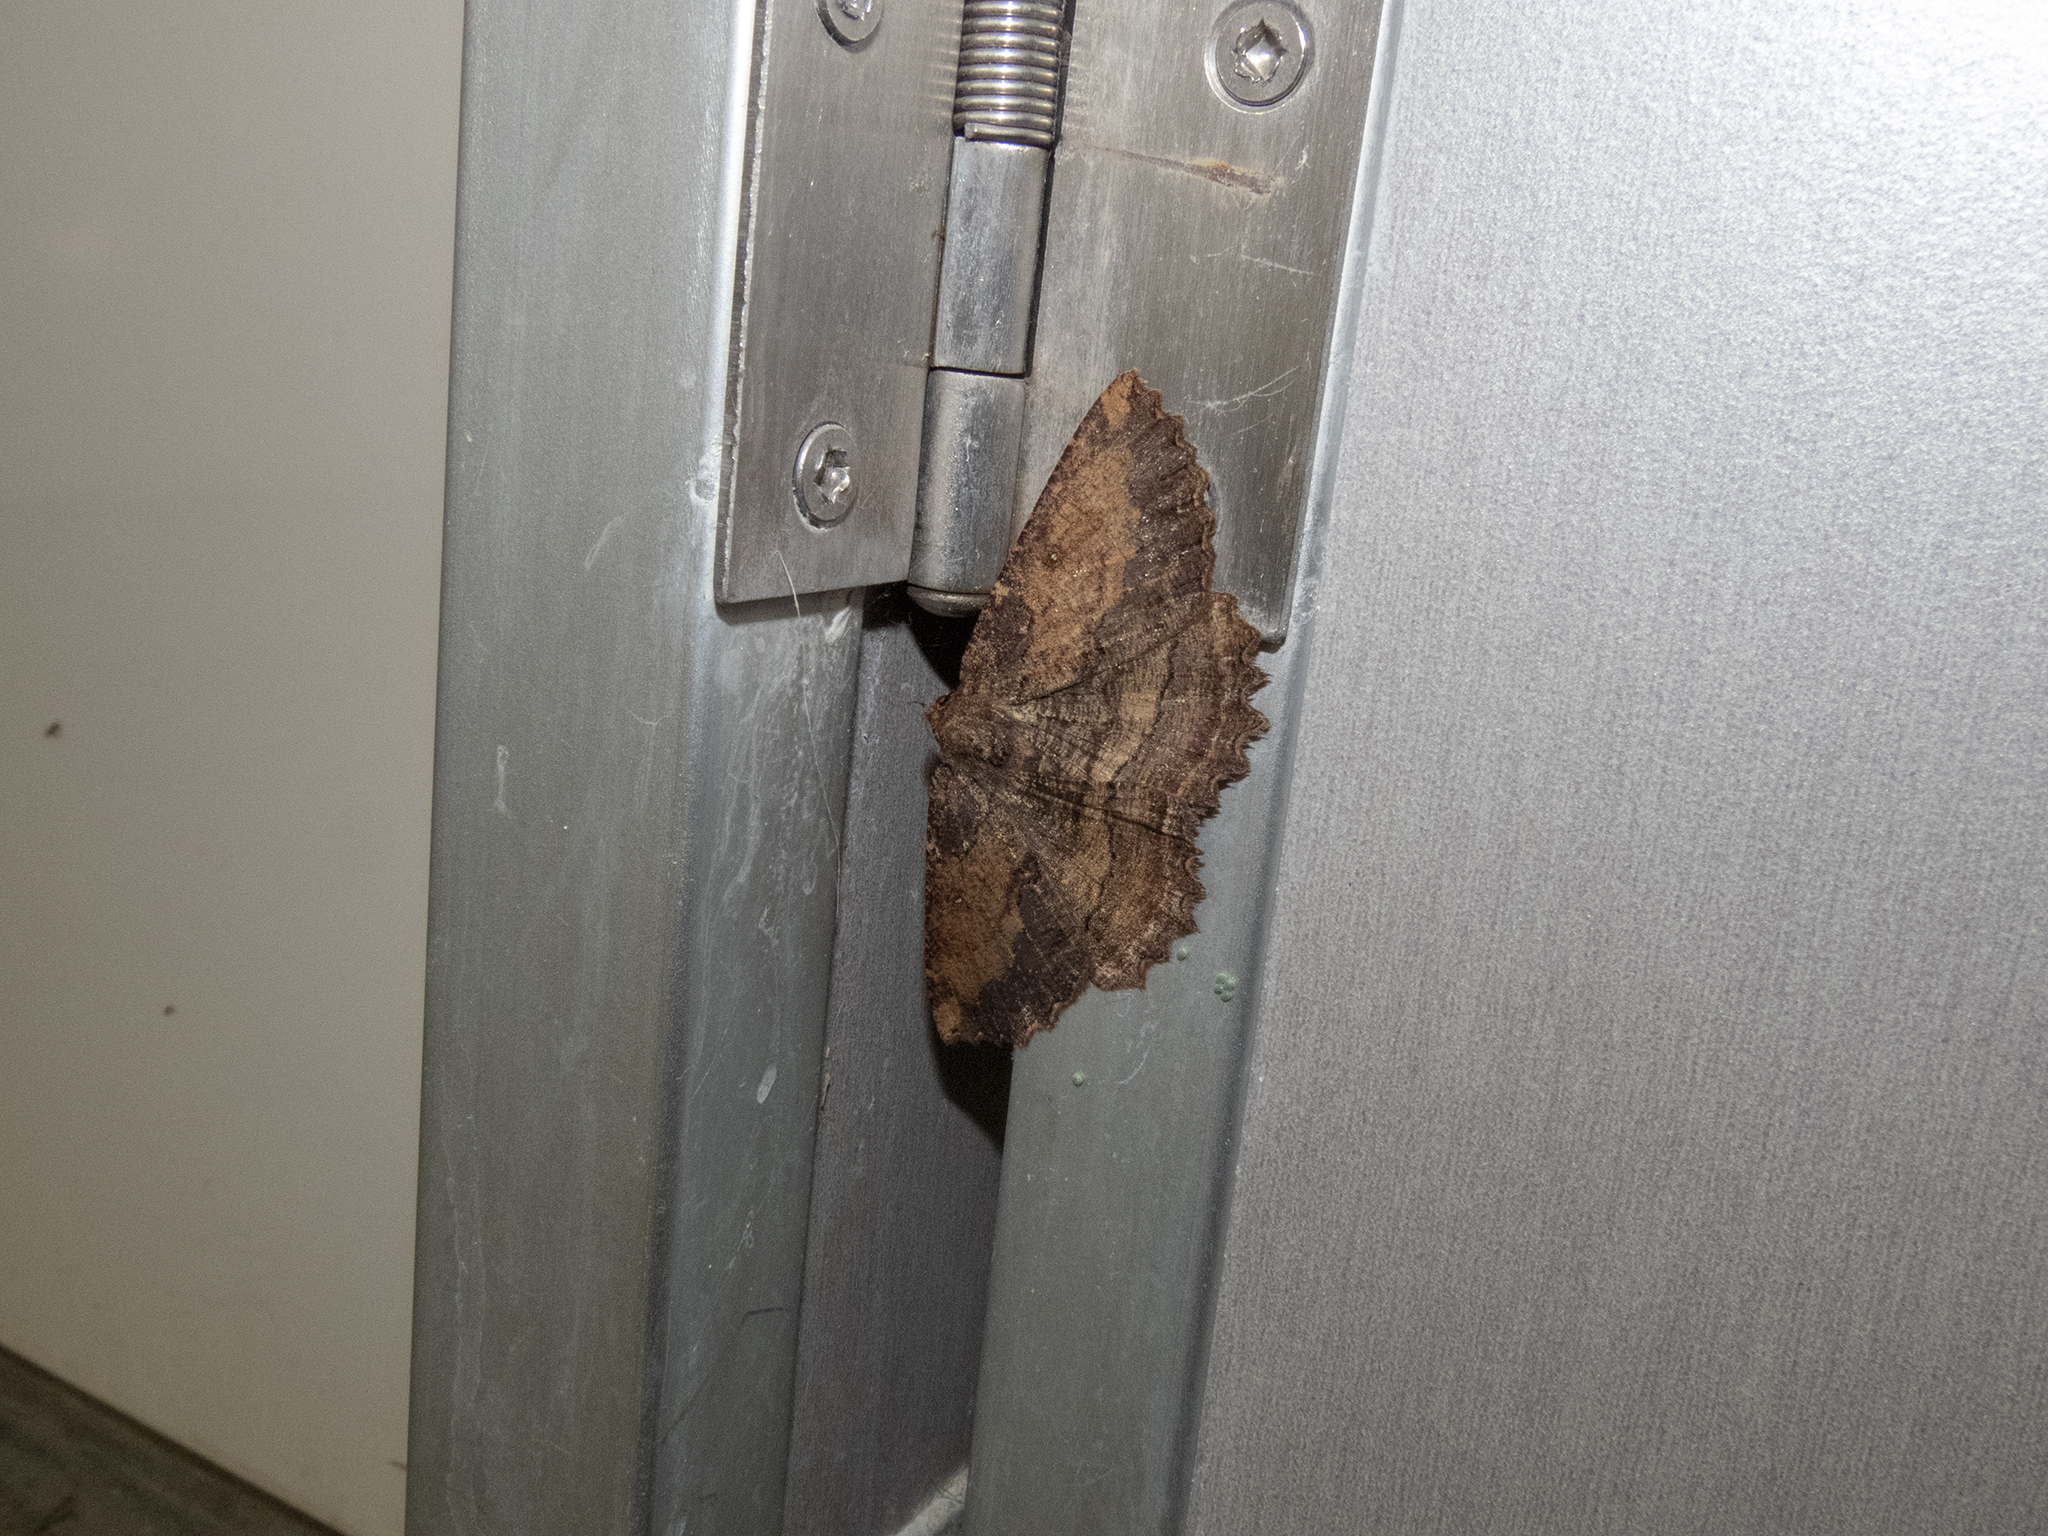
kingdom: Animalia
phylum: Arthropoda
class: Insecta
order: Lepidoptera
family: Geometridae
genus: Gellonia
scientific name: Gellonia dejectaria
